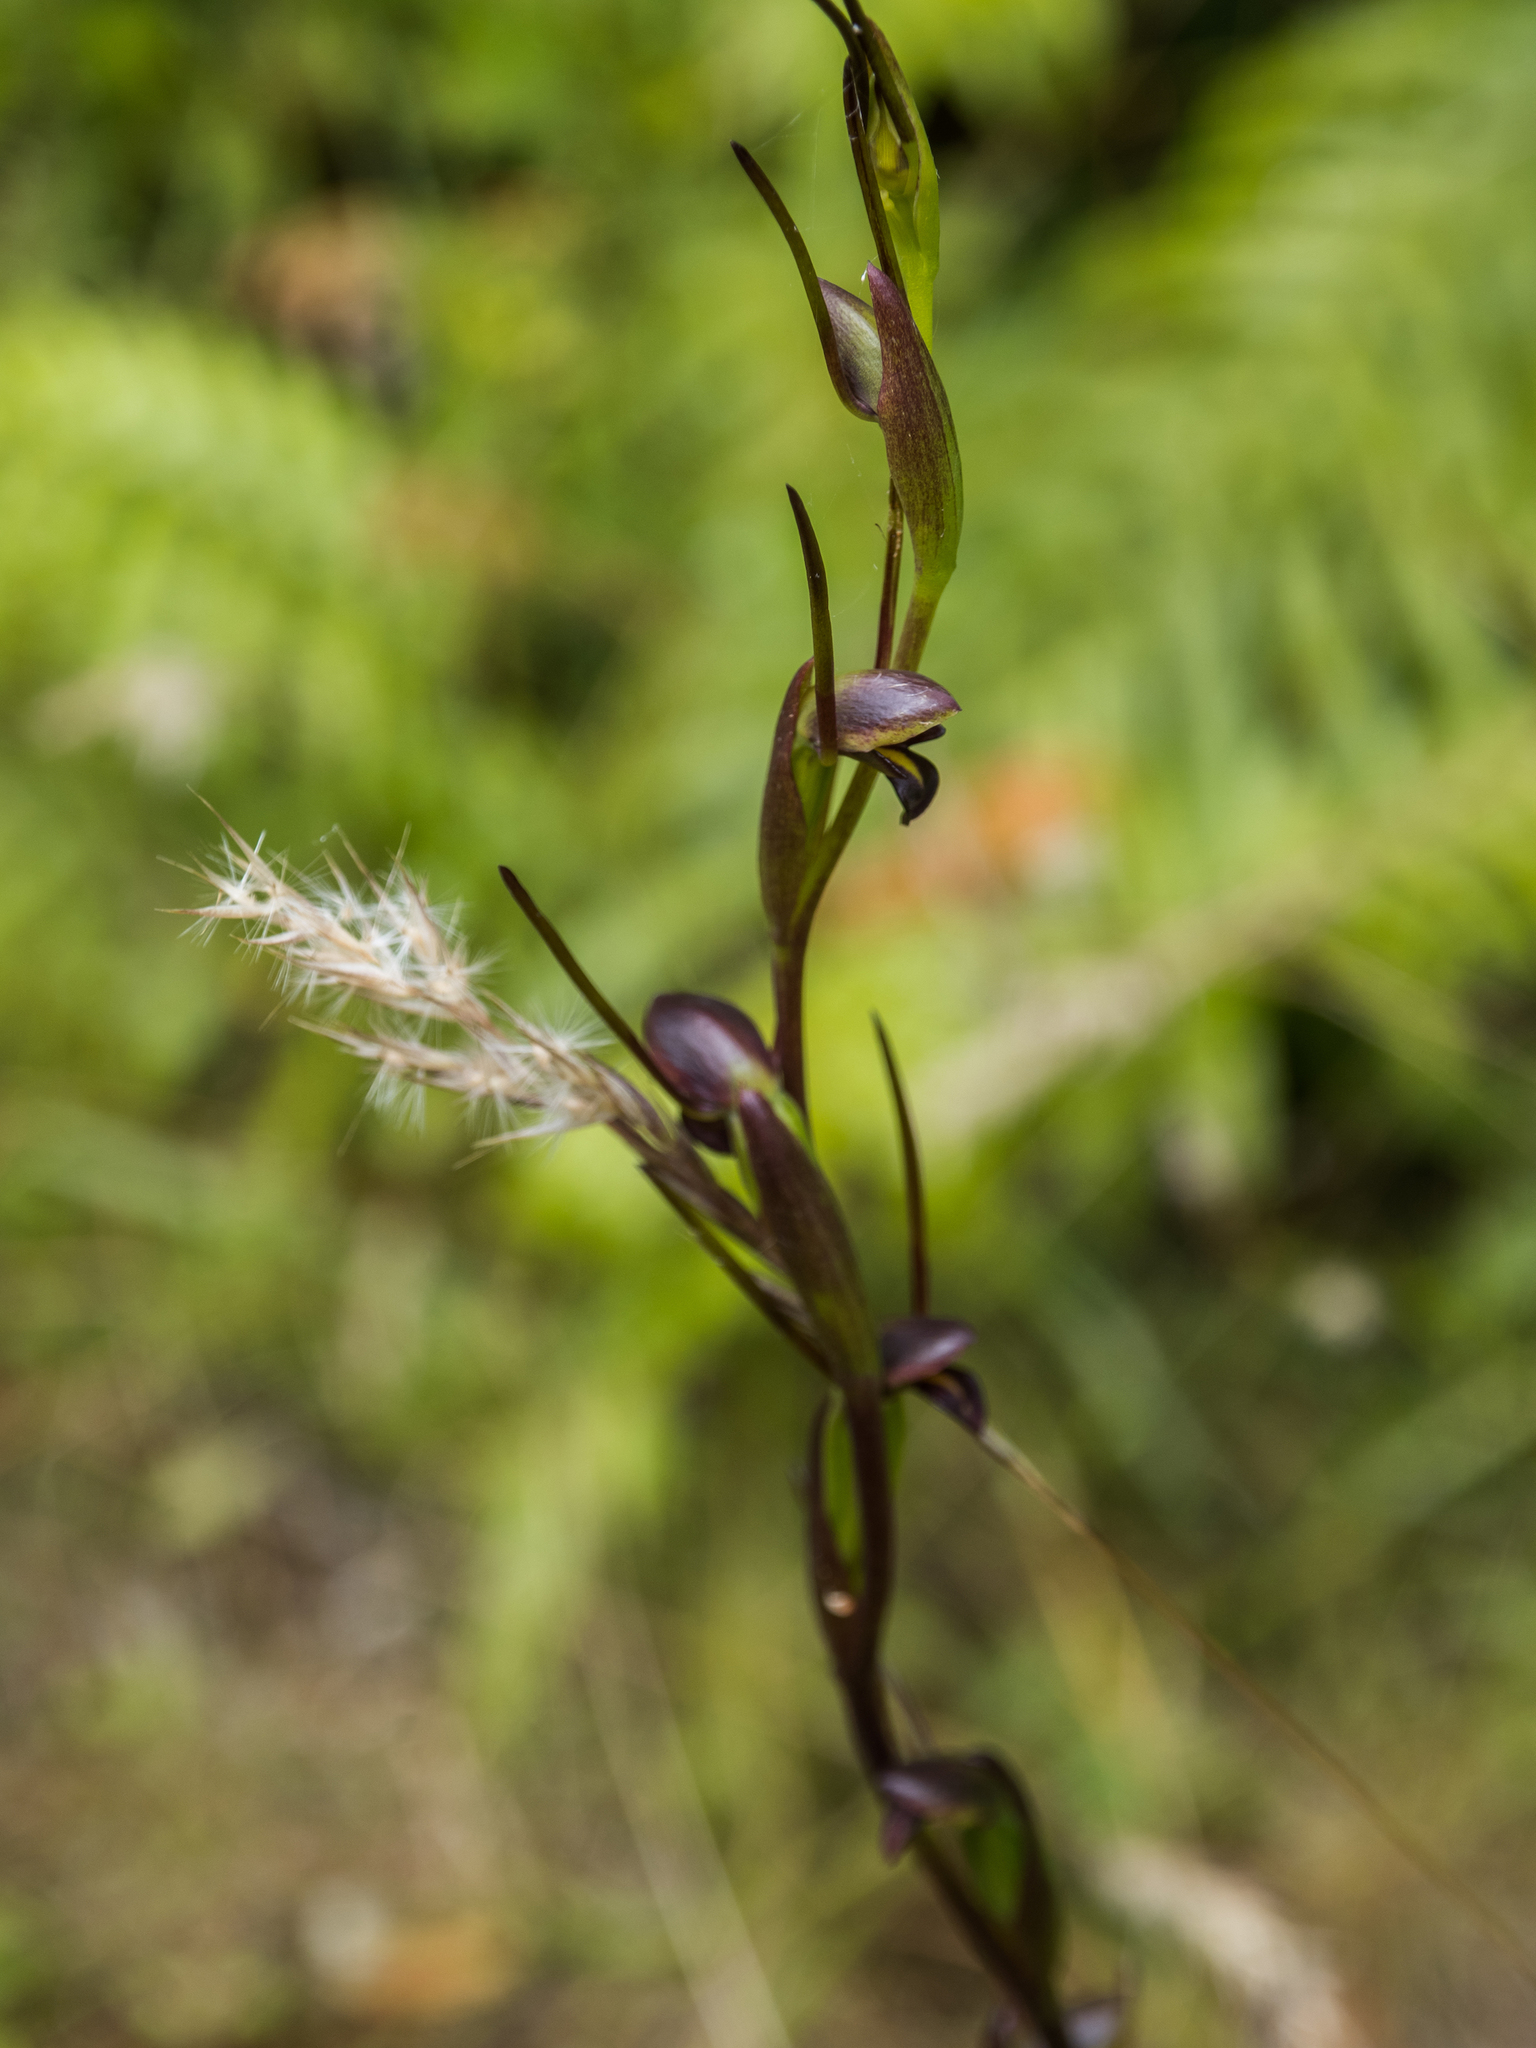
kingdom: Plantae
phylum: Tracheophyta
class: Liliopsida
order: Asparagales
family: Orchidaceae
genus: Orthoceras
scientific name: Orthoceras novae-zeelandiae
